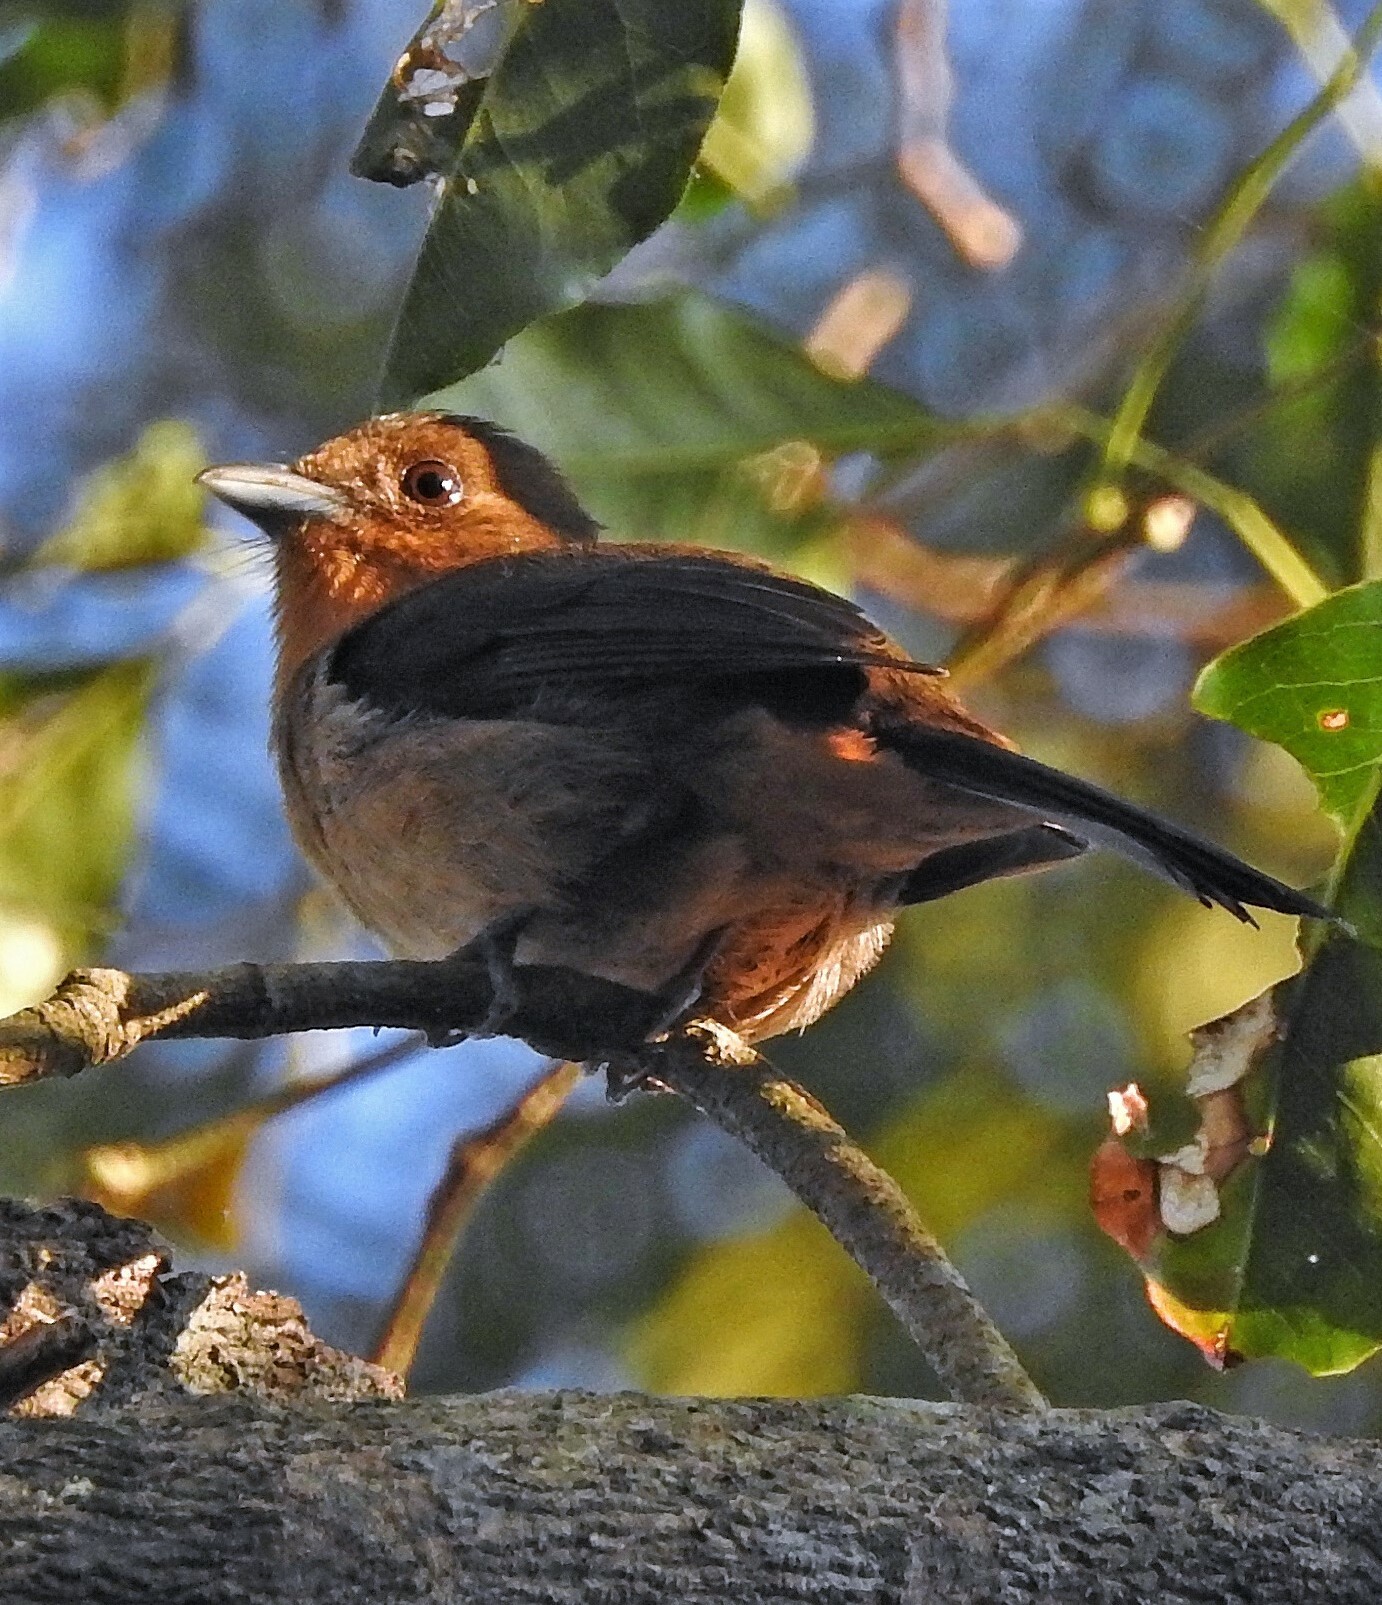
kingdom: Animalia
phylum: Chordata
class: Aves
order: Passeriformes
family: Thraupidae
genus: Trichothraupis
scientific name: Trichothraupis melanops
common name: Black-goggled tanager
